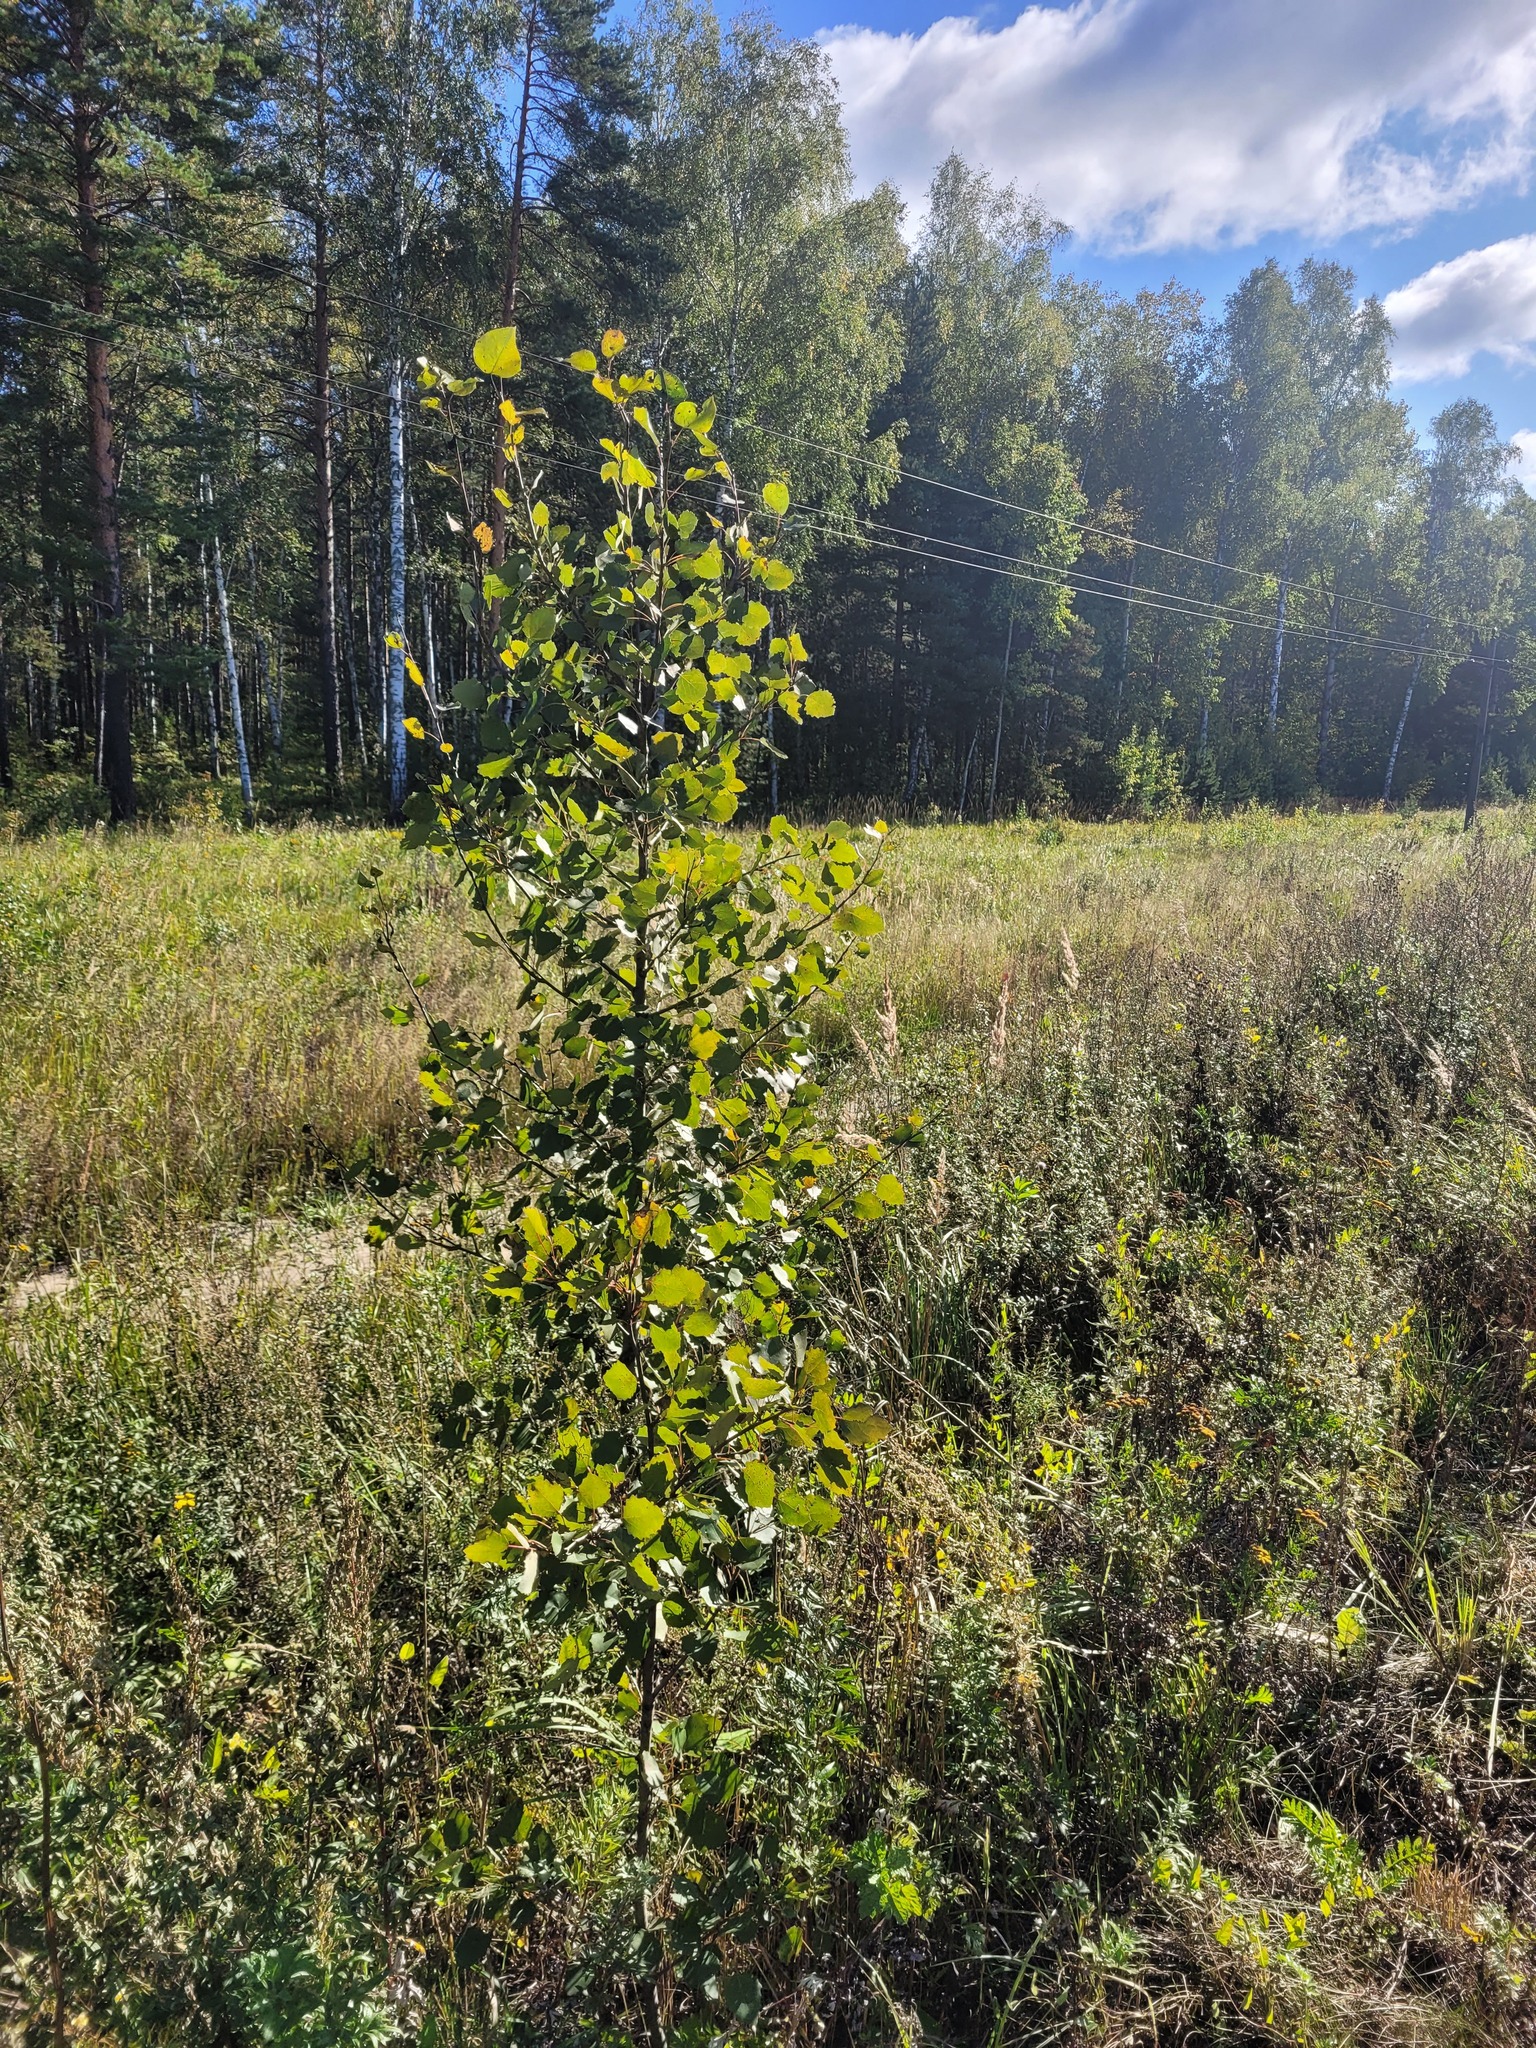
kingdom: Plantae
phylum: Tracheophyta
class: Magnoliopsida
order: Malpighiales
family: Salicaceae
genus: Populus
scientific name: Populus tremula
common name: European aspen
